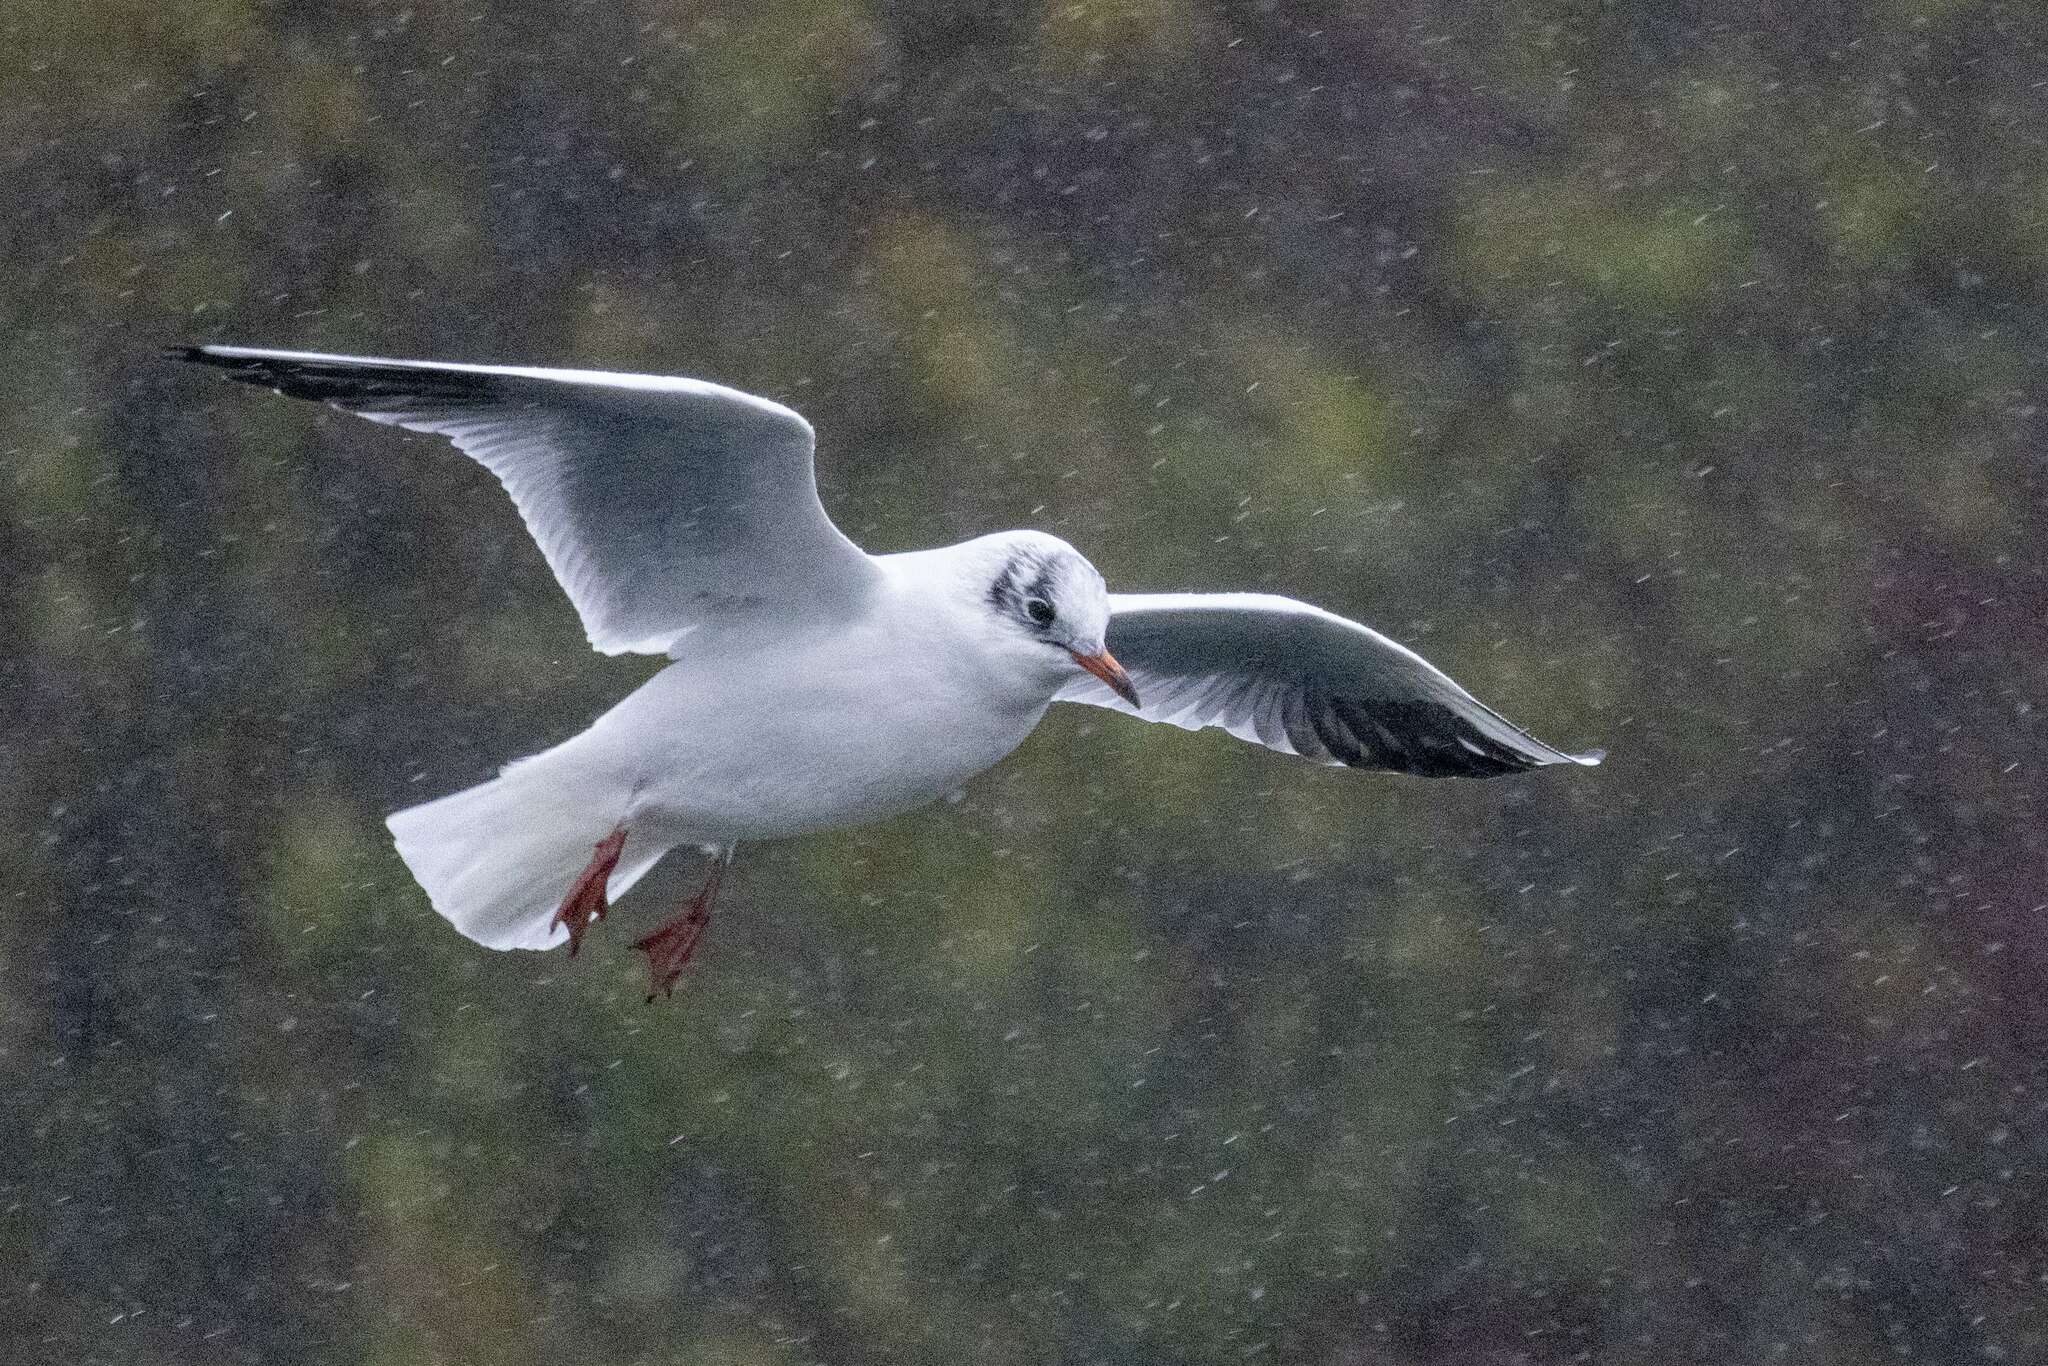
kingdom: Animalia
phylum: Chordata
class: Aves
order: Charadriiformes
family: Laridae
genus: Chroicocephalus
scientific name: Chroicocephalus ridibundus
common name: Black-headed gull
